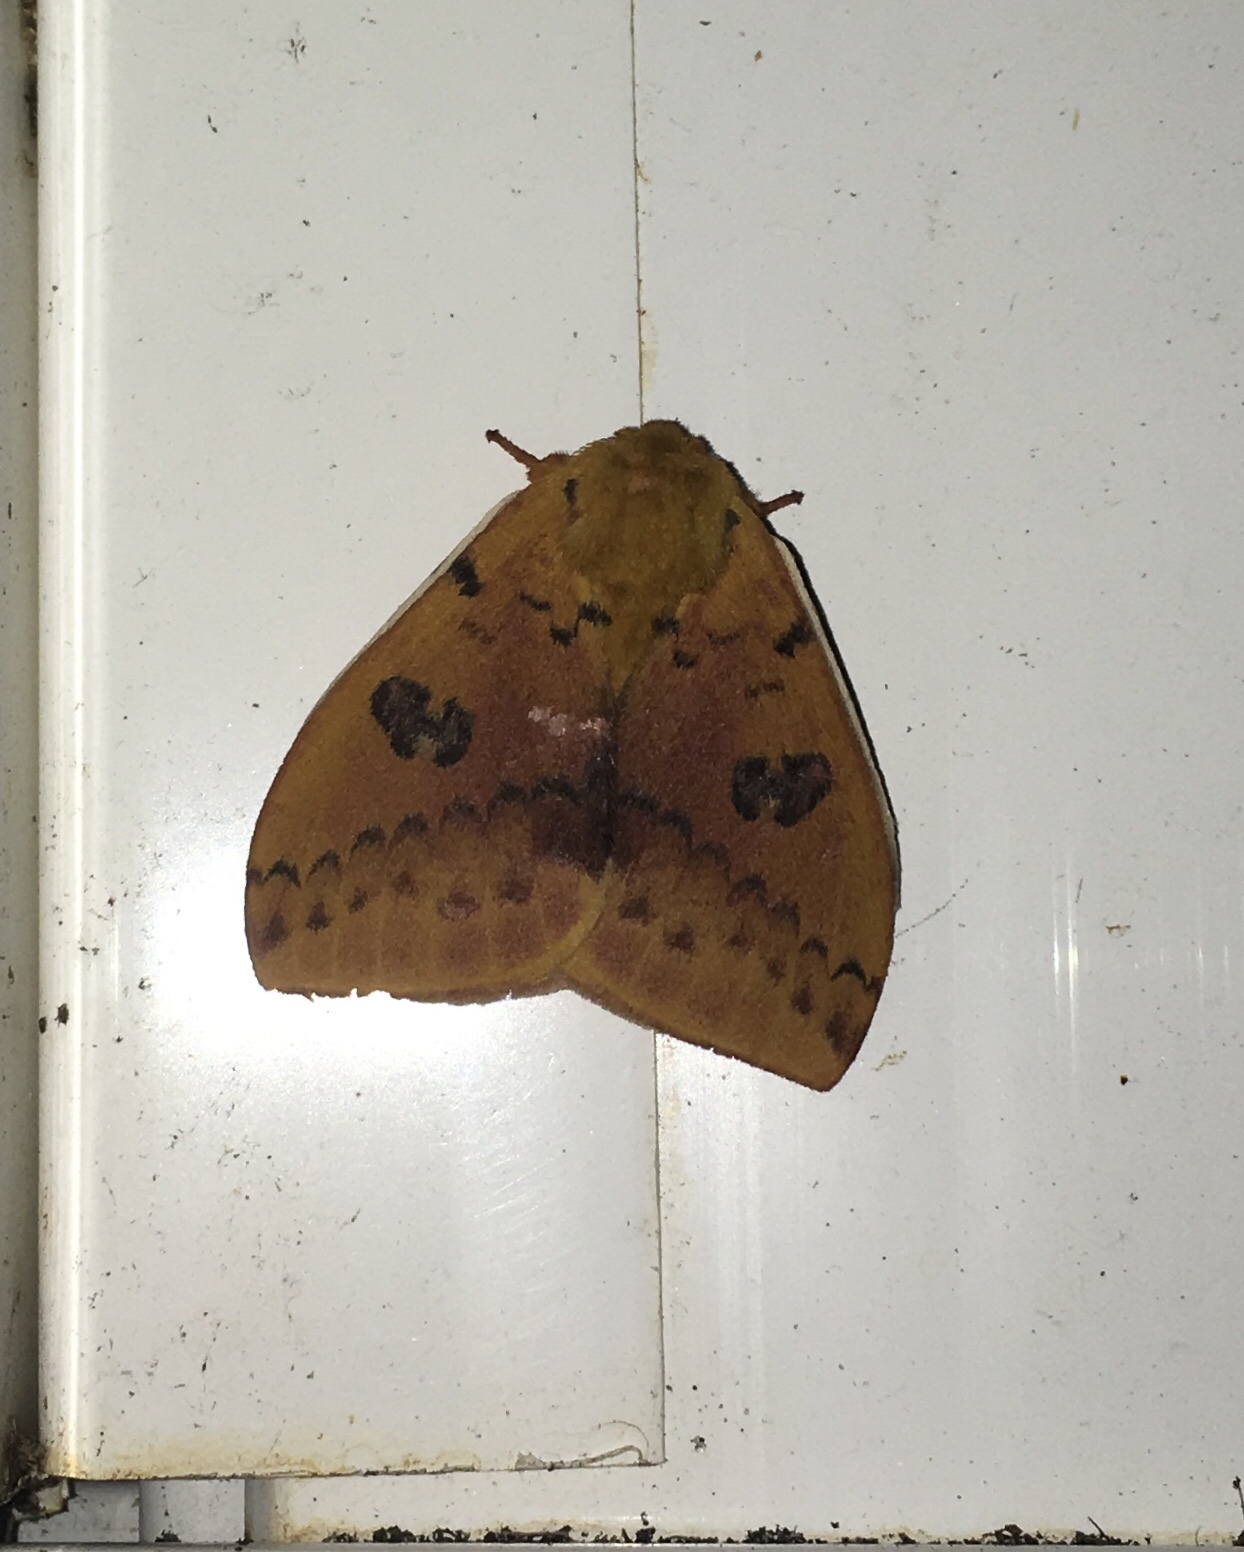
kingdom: Animalia
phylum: Arthropoda
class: Insecta
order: Lepidoptera
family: Saturniidae
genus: Automeris
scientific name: Automeris io
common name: Io moth
